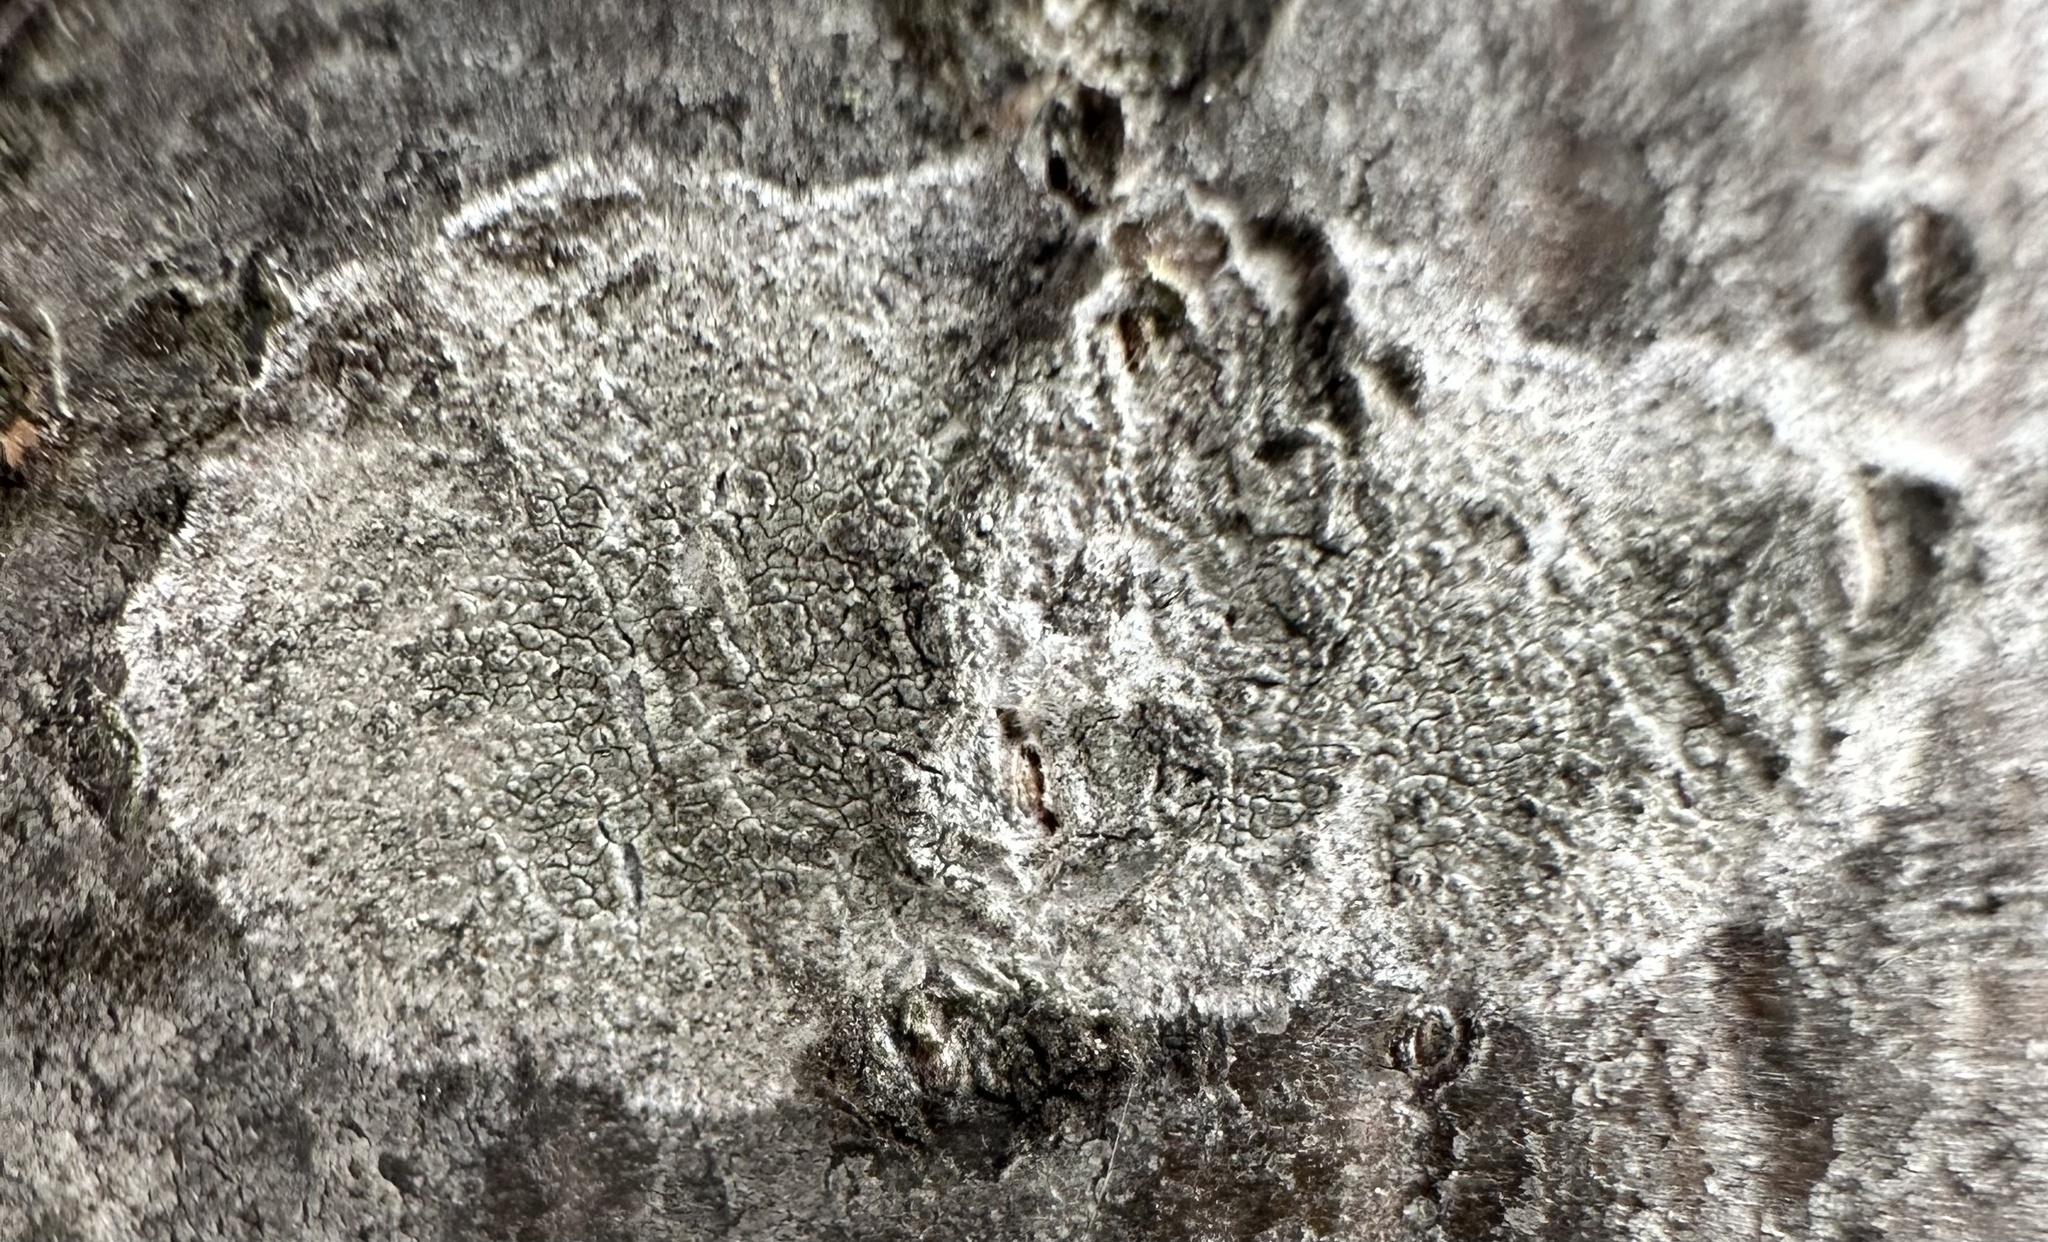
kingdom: Fungi
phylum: Ascomycota
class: Lecanoromycetes
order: Ostropales
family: Phlyctidaceae
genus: Phlyctis
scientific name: Phlyctis argena
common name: Whitewash lichen
